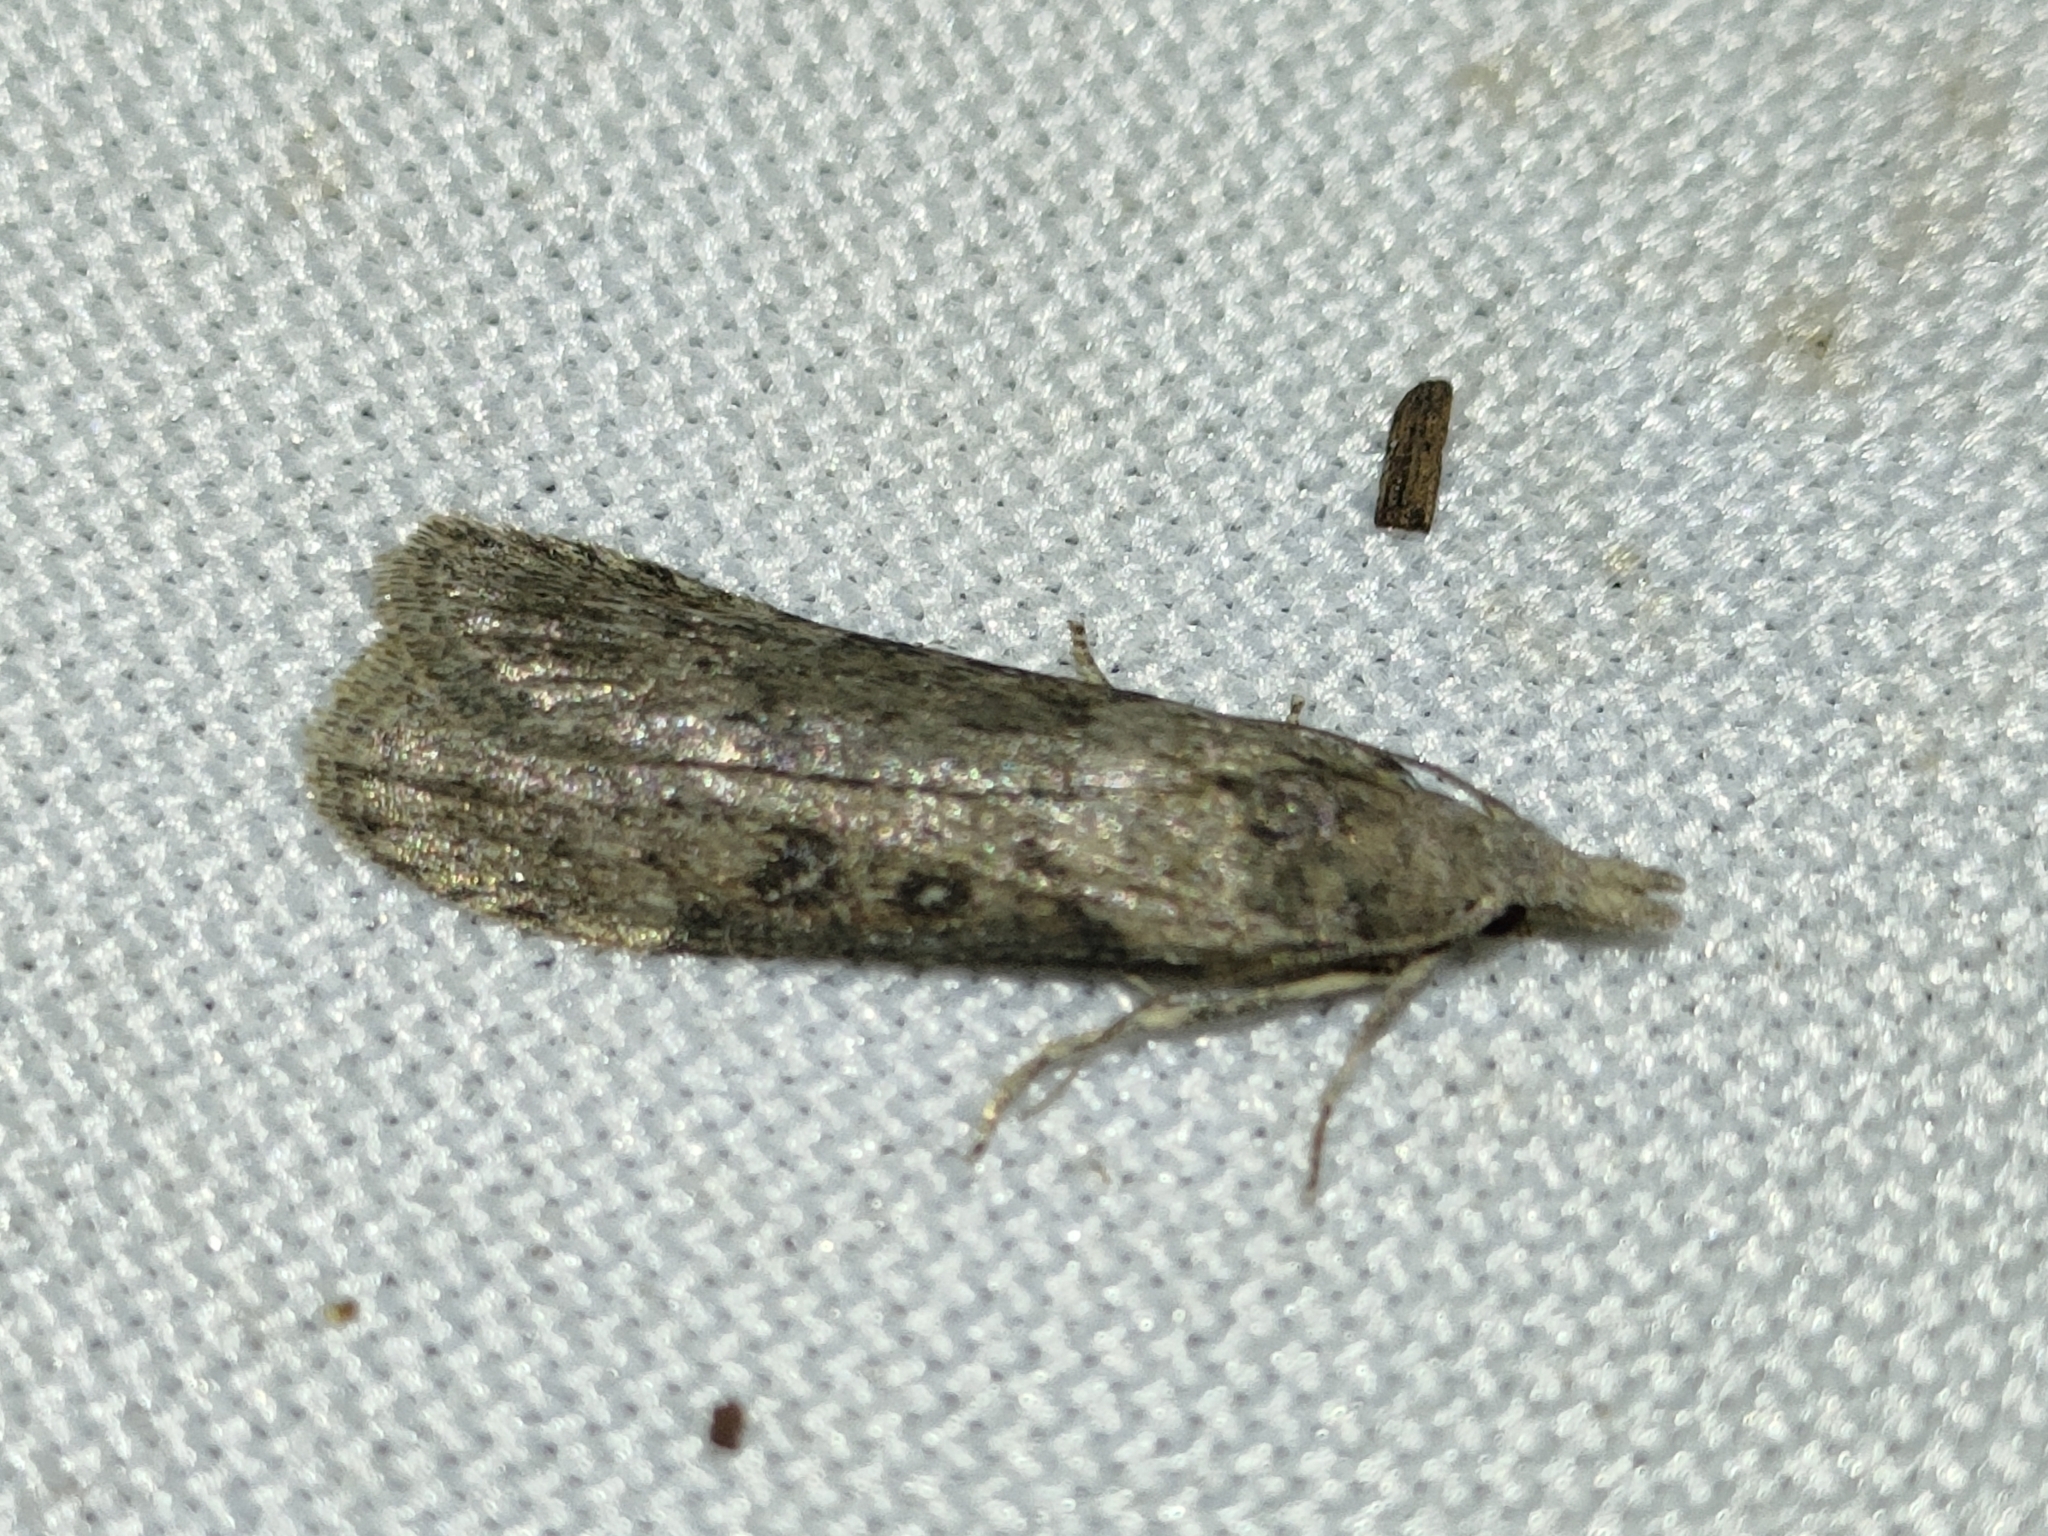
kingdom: Animalia
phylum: Arthropoda
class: Insecta
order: Lepidoptera
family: Pyralidae
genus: Lamoria
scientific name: Lamoria anella
